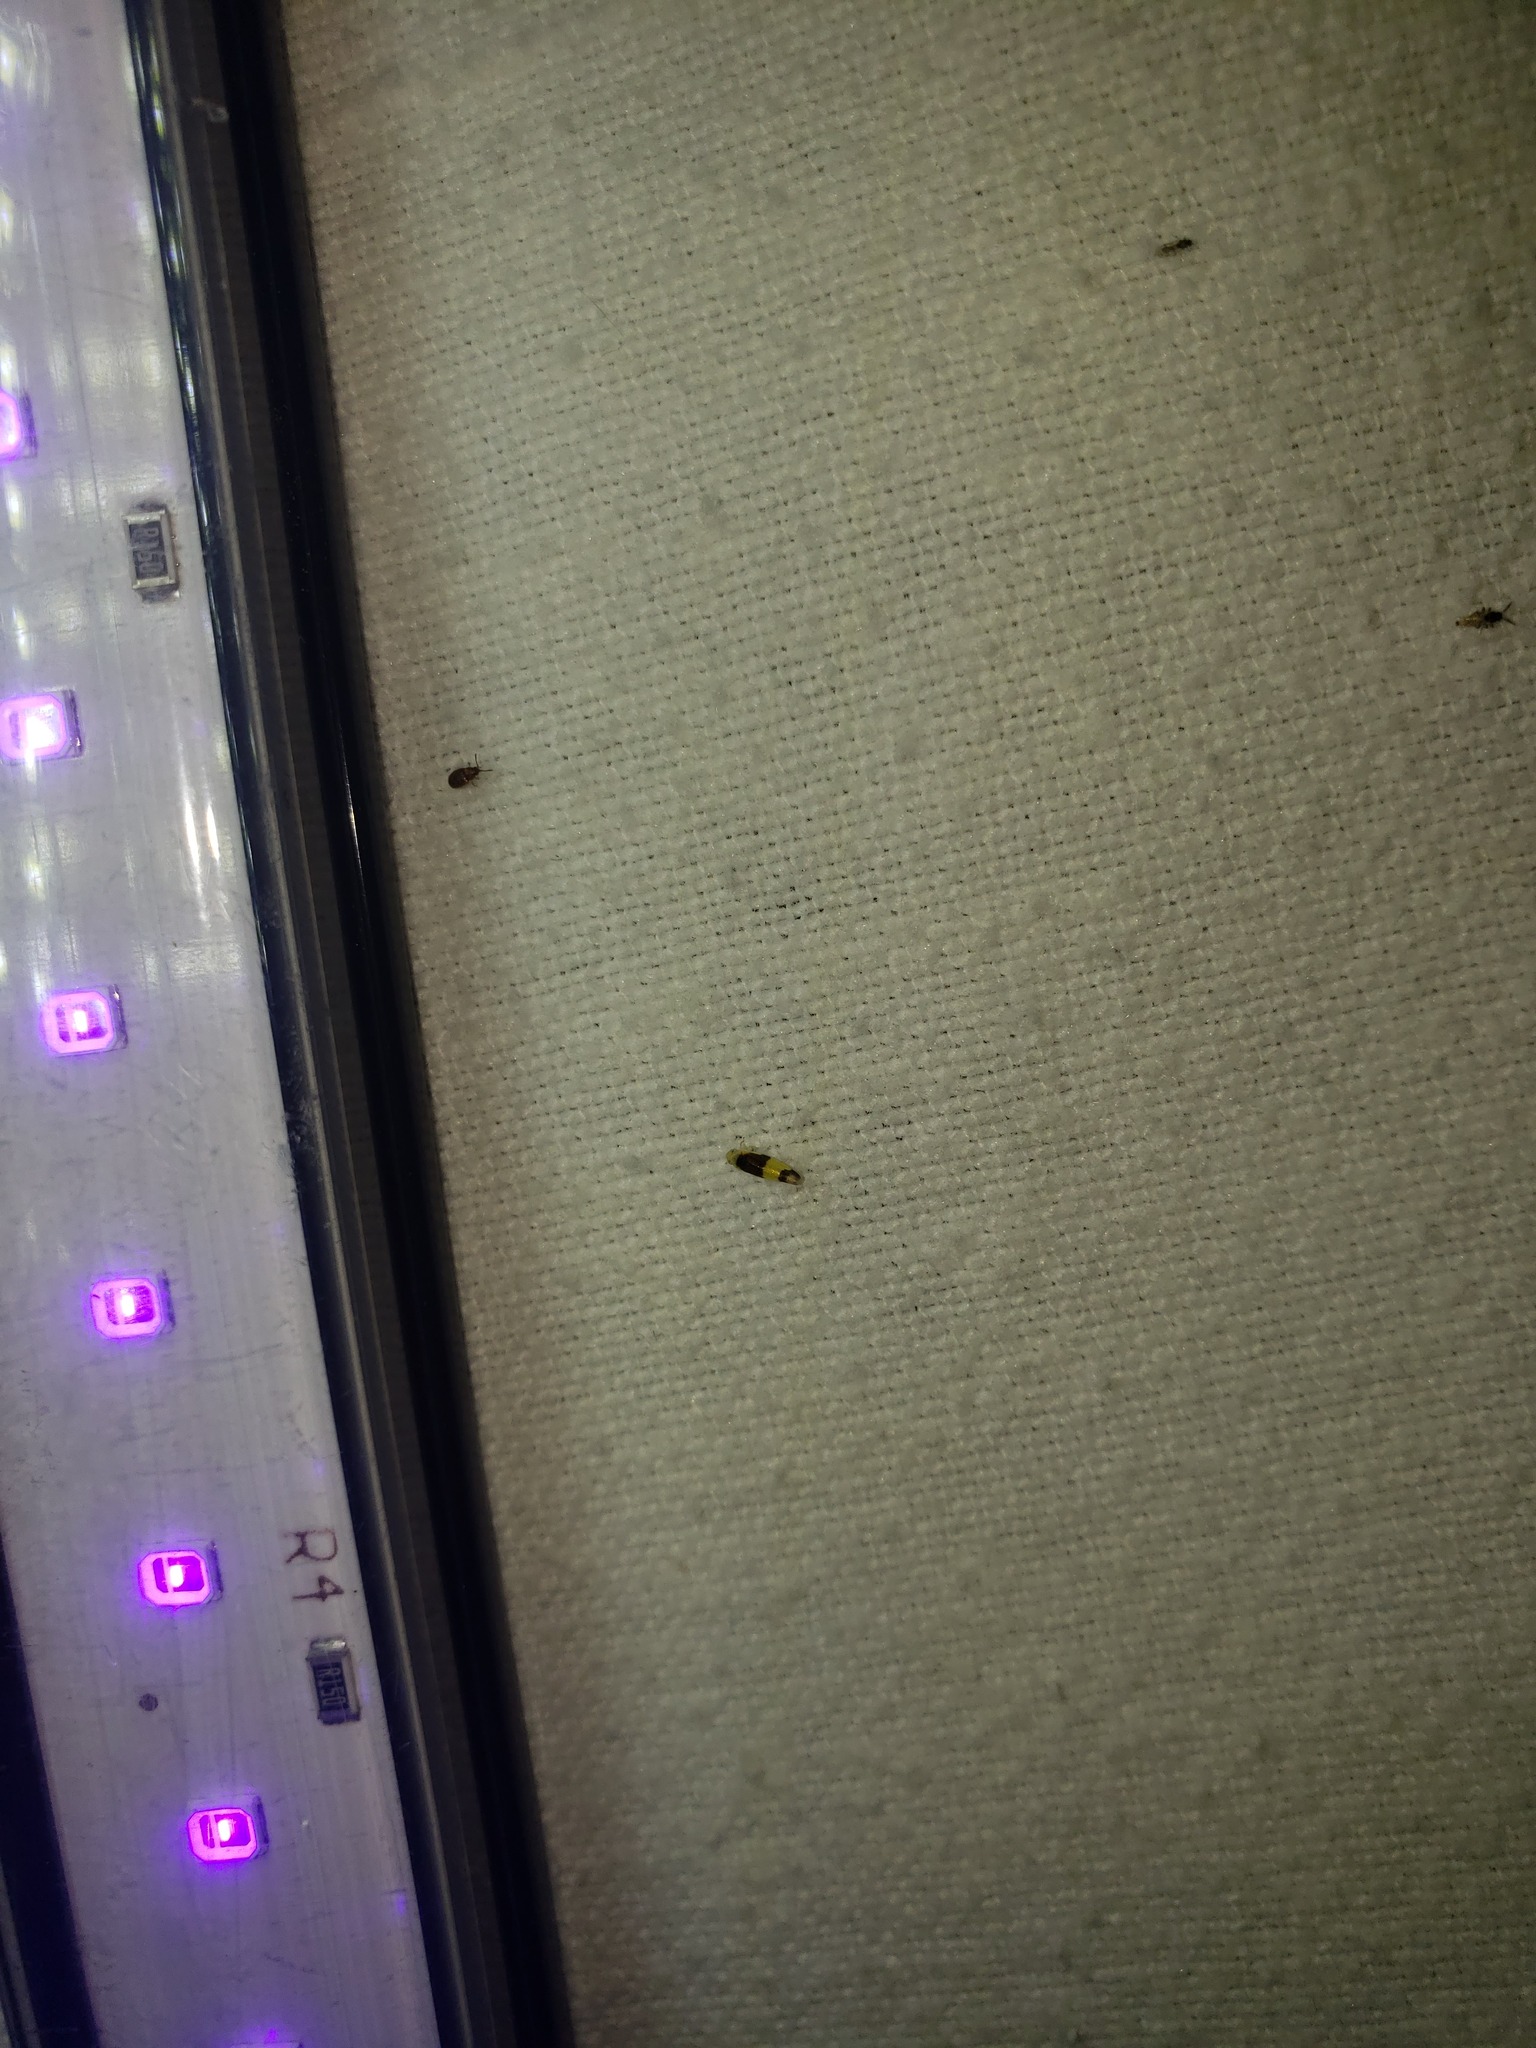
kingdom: Animalia
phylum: Arthropoda
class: Insecta
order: Hemiptera
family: Cicadellidae
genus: Empoa
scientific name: Empoa venusta
